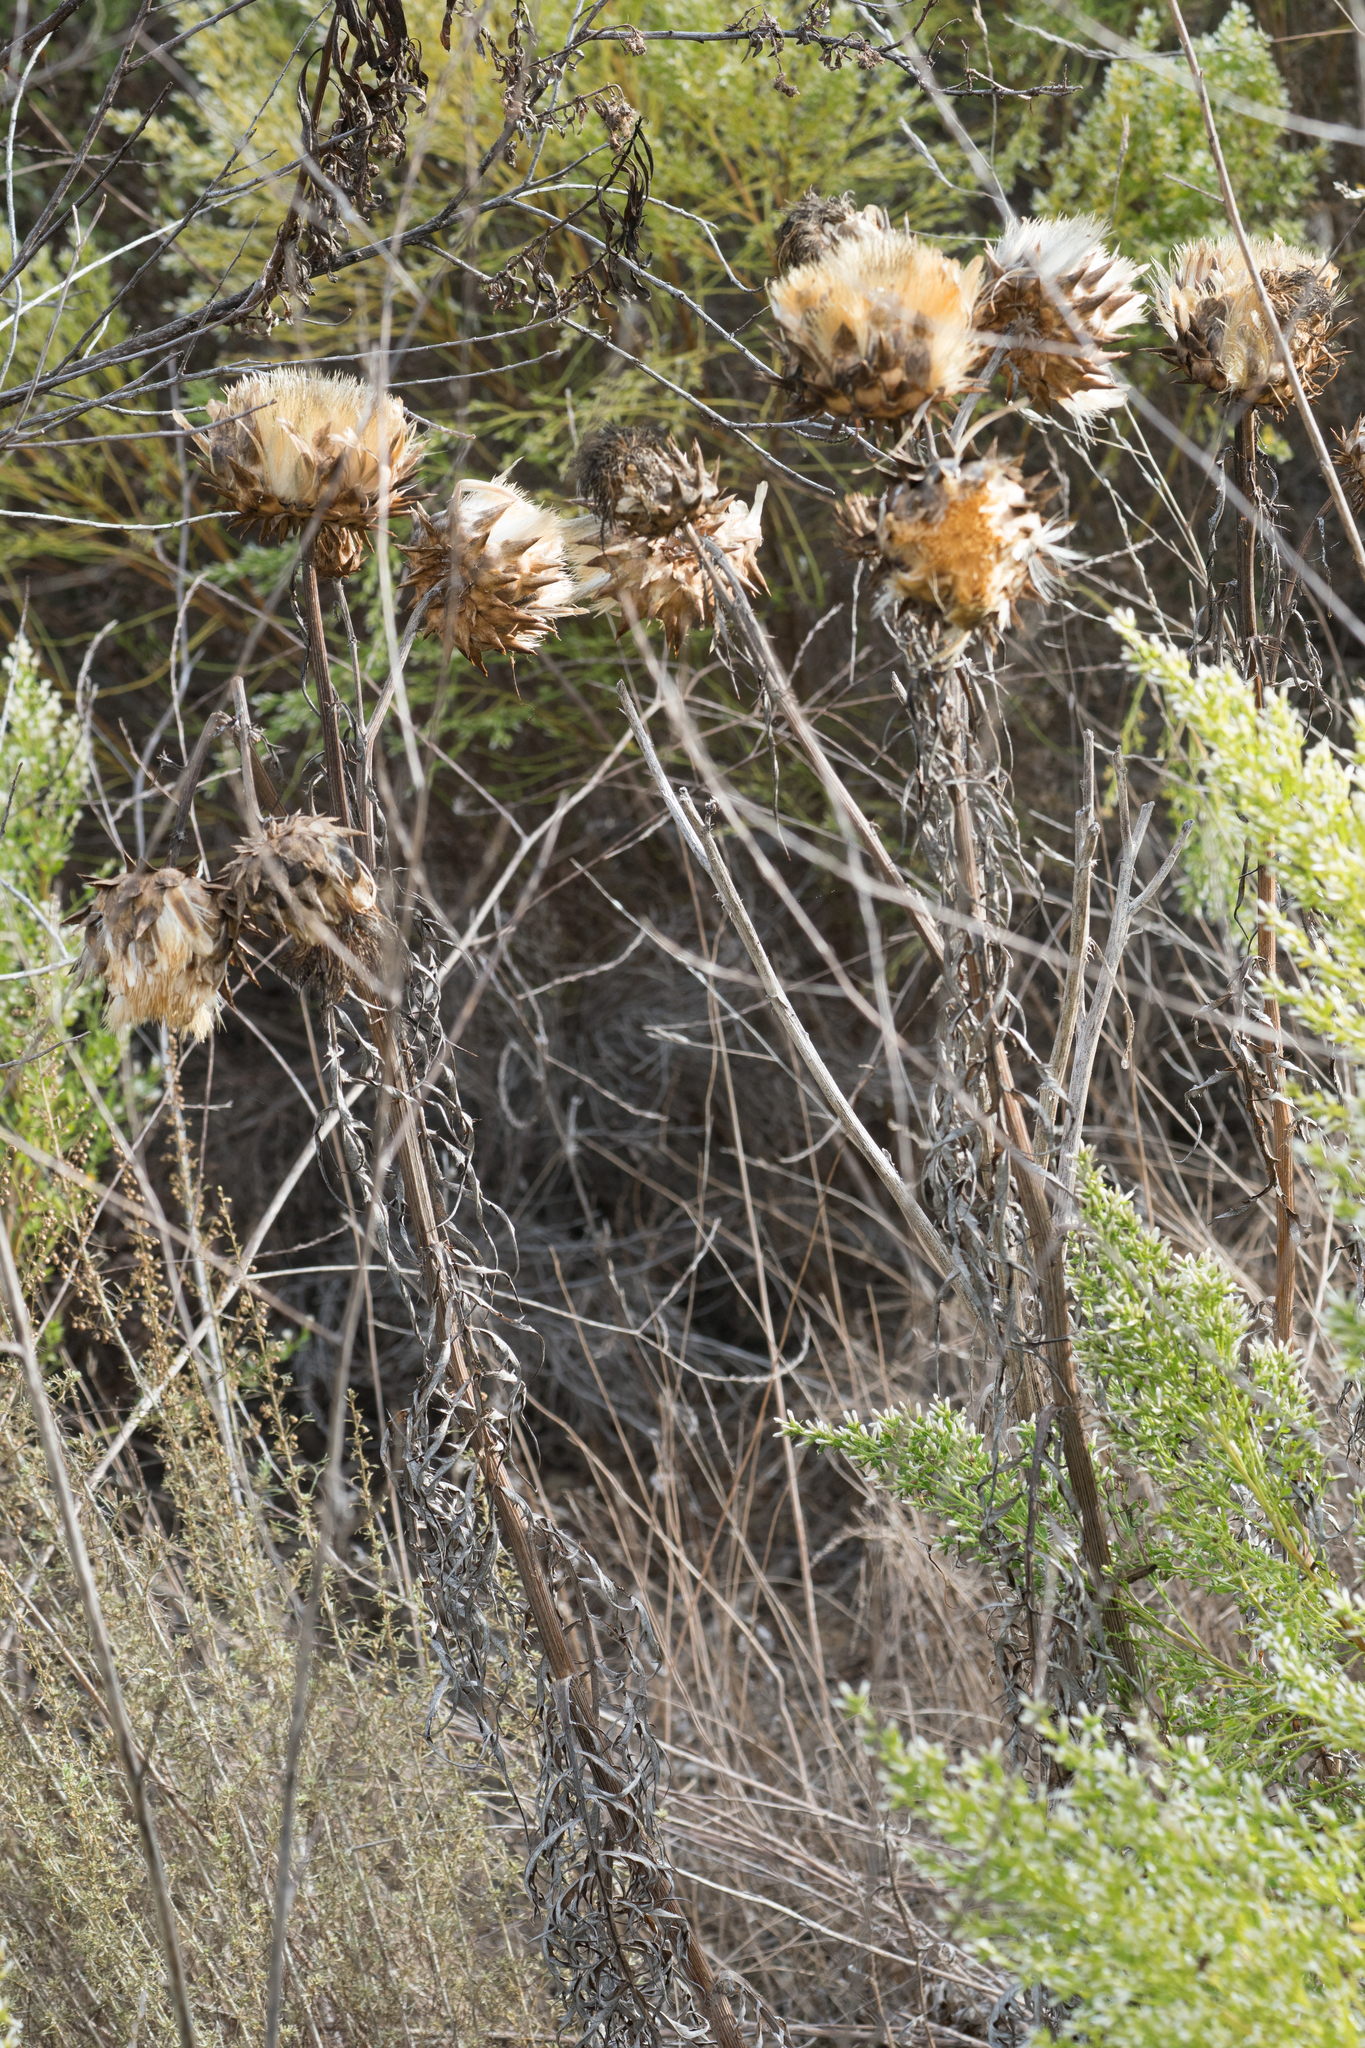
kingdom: Plantae
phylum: Tracheophyta
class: Magnoliopsida
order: Asterales
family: Asteraceae
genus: Cynara
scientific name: Cynara cardunculus
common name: Globe artichoke
